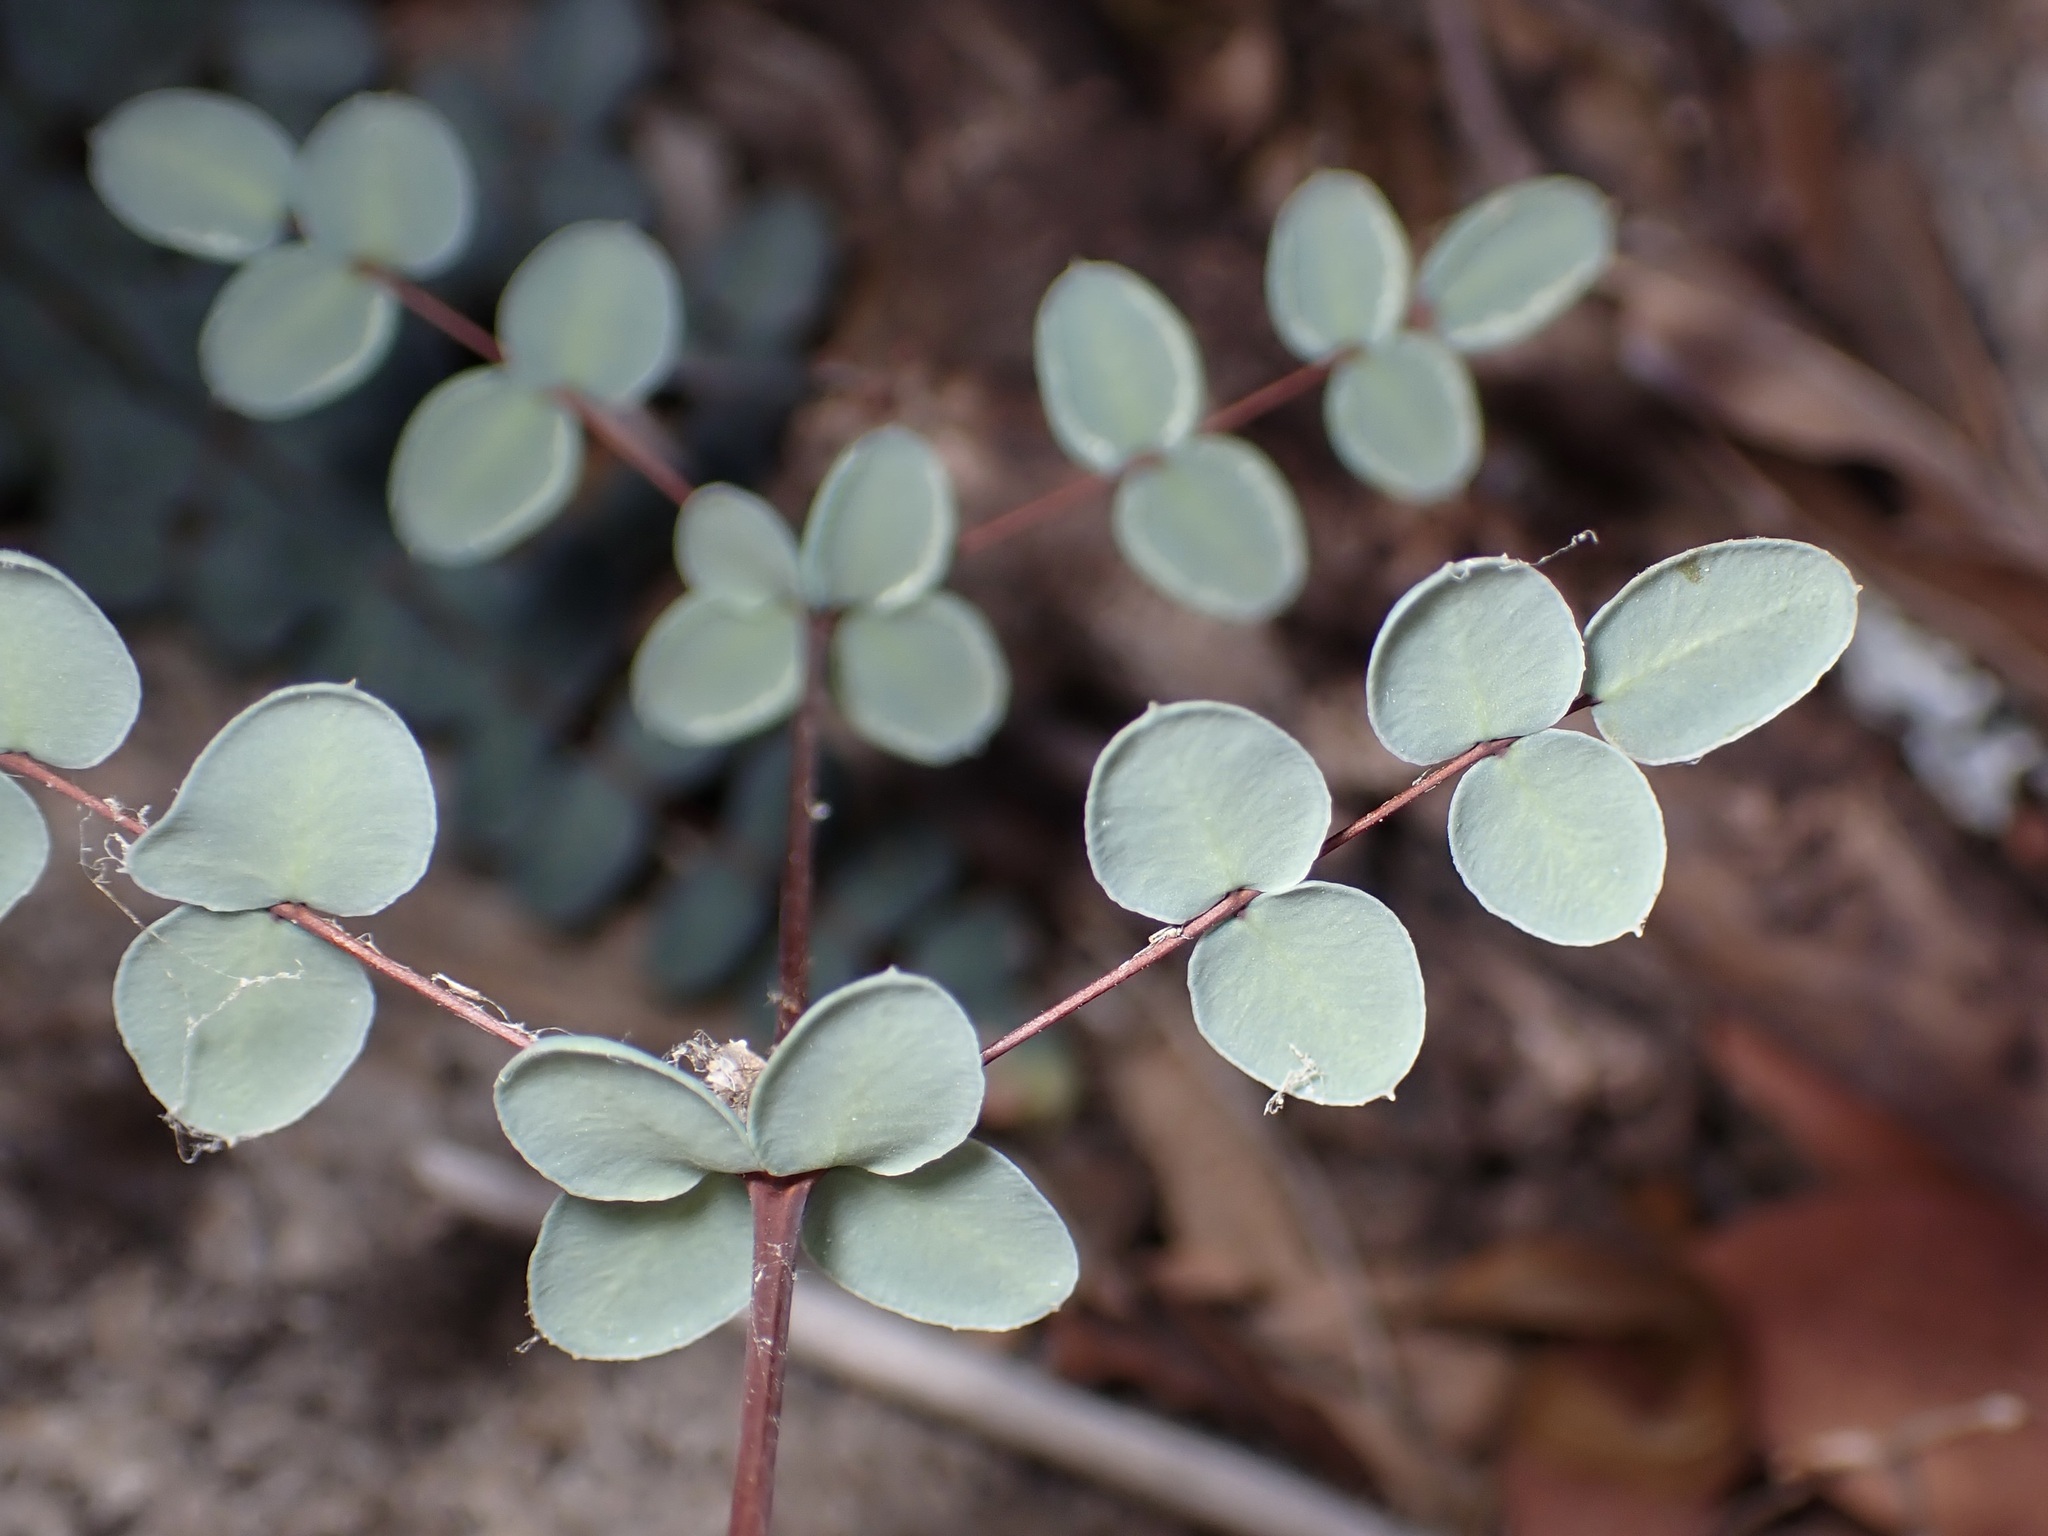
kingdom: Plantae
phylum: Tracheophyta
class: Polypodiopsida
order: Polypodiales
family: Pteridaceae
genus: Pellaea
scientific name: Pellaea truncata
